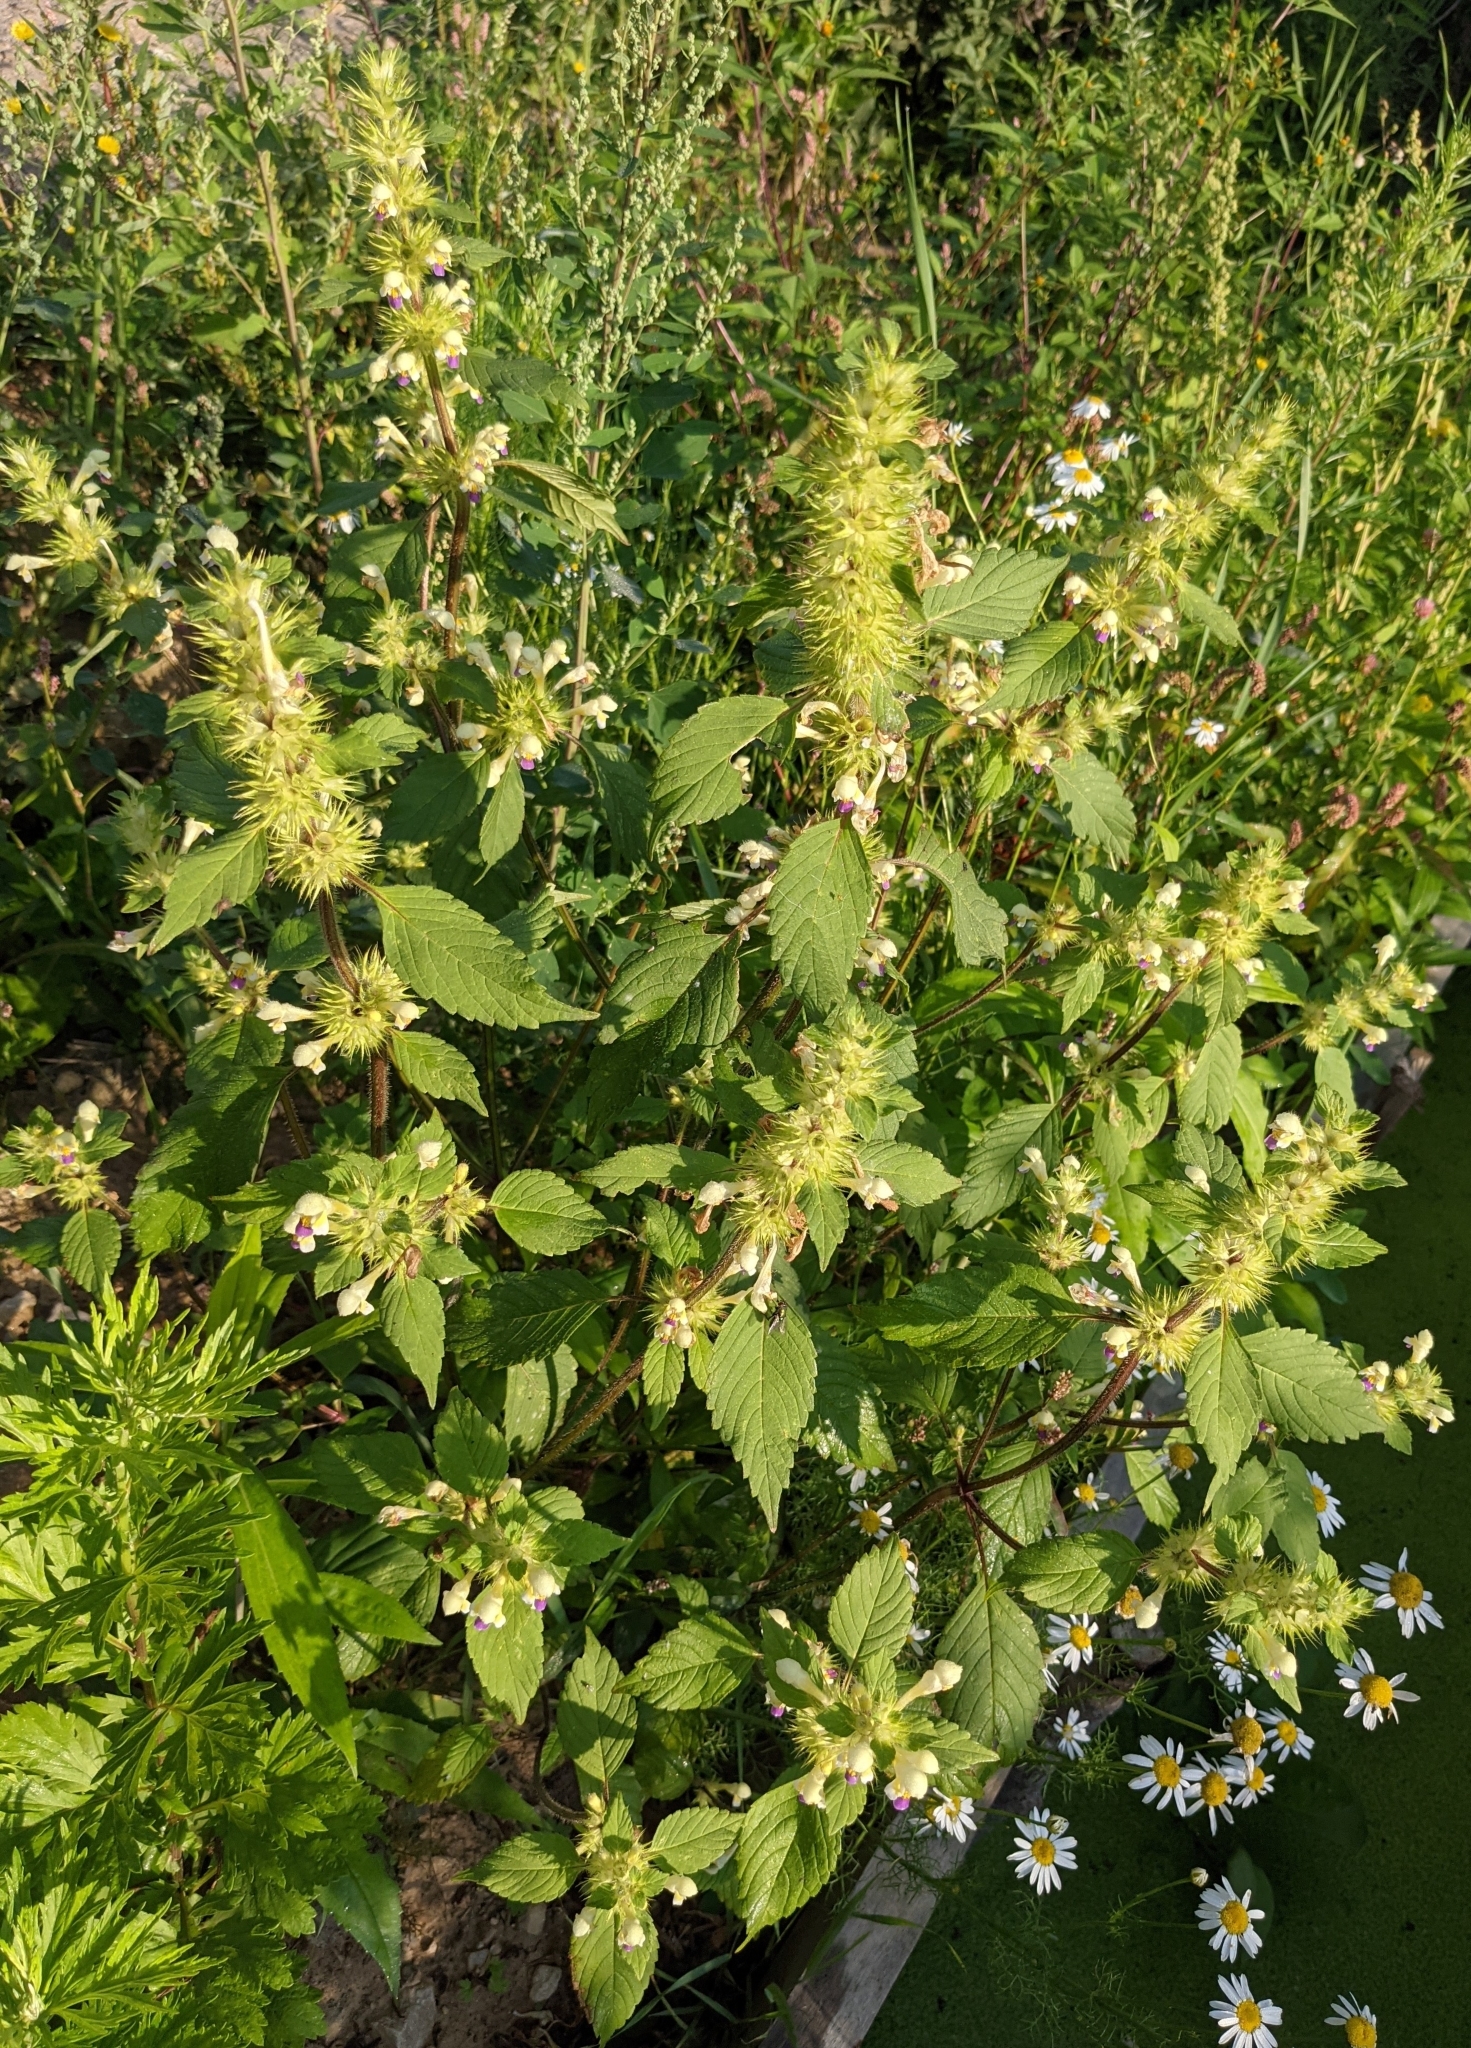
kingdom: Plantae
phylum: Tracheophyta
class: Magnoliopsida
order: Lamiales
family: Lamiaceae
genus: Galeopsis
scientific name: Galeopsis speciosa
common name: Large-flowered hemp-nettle
